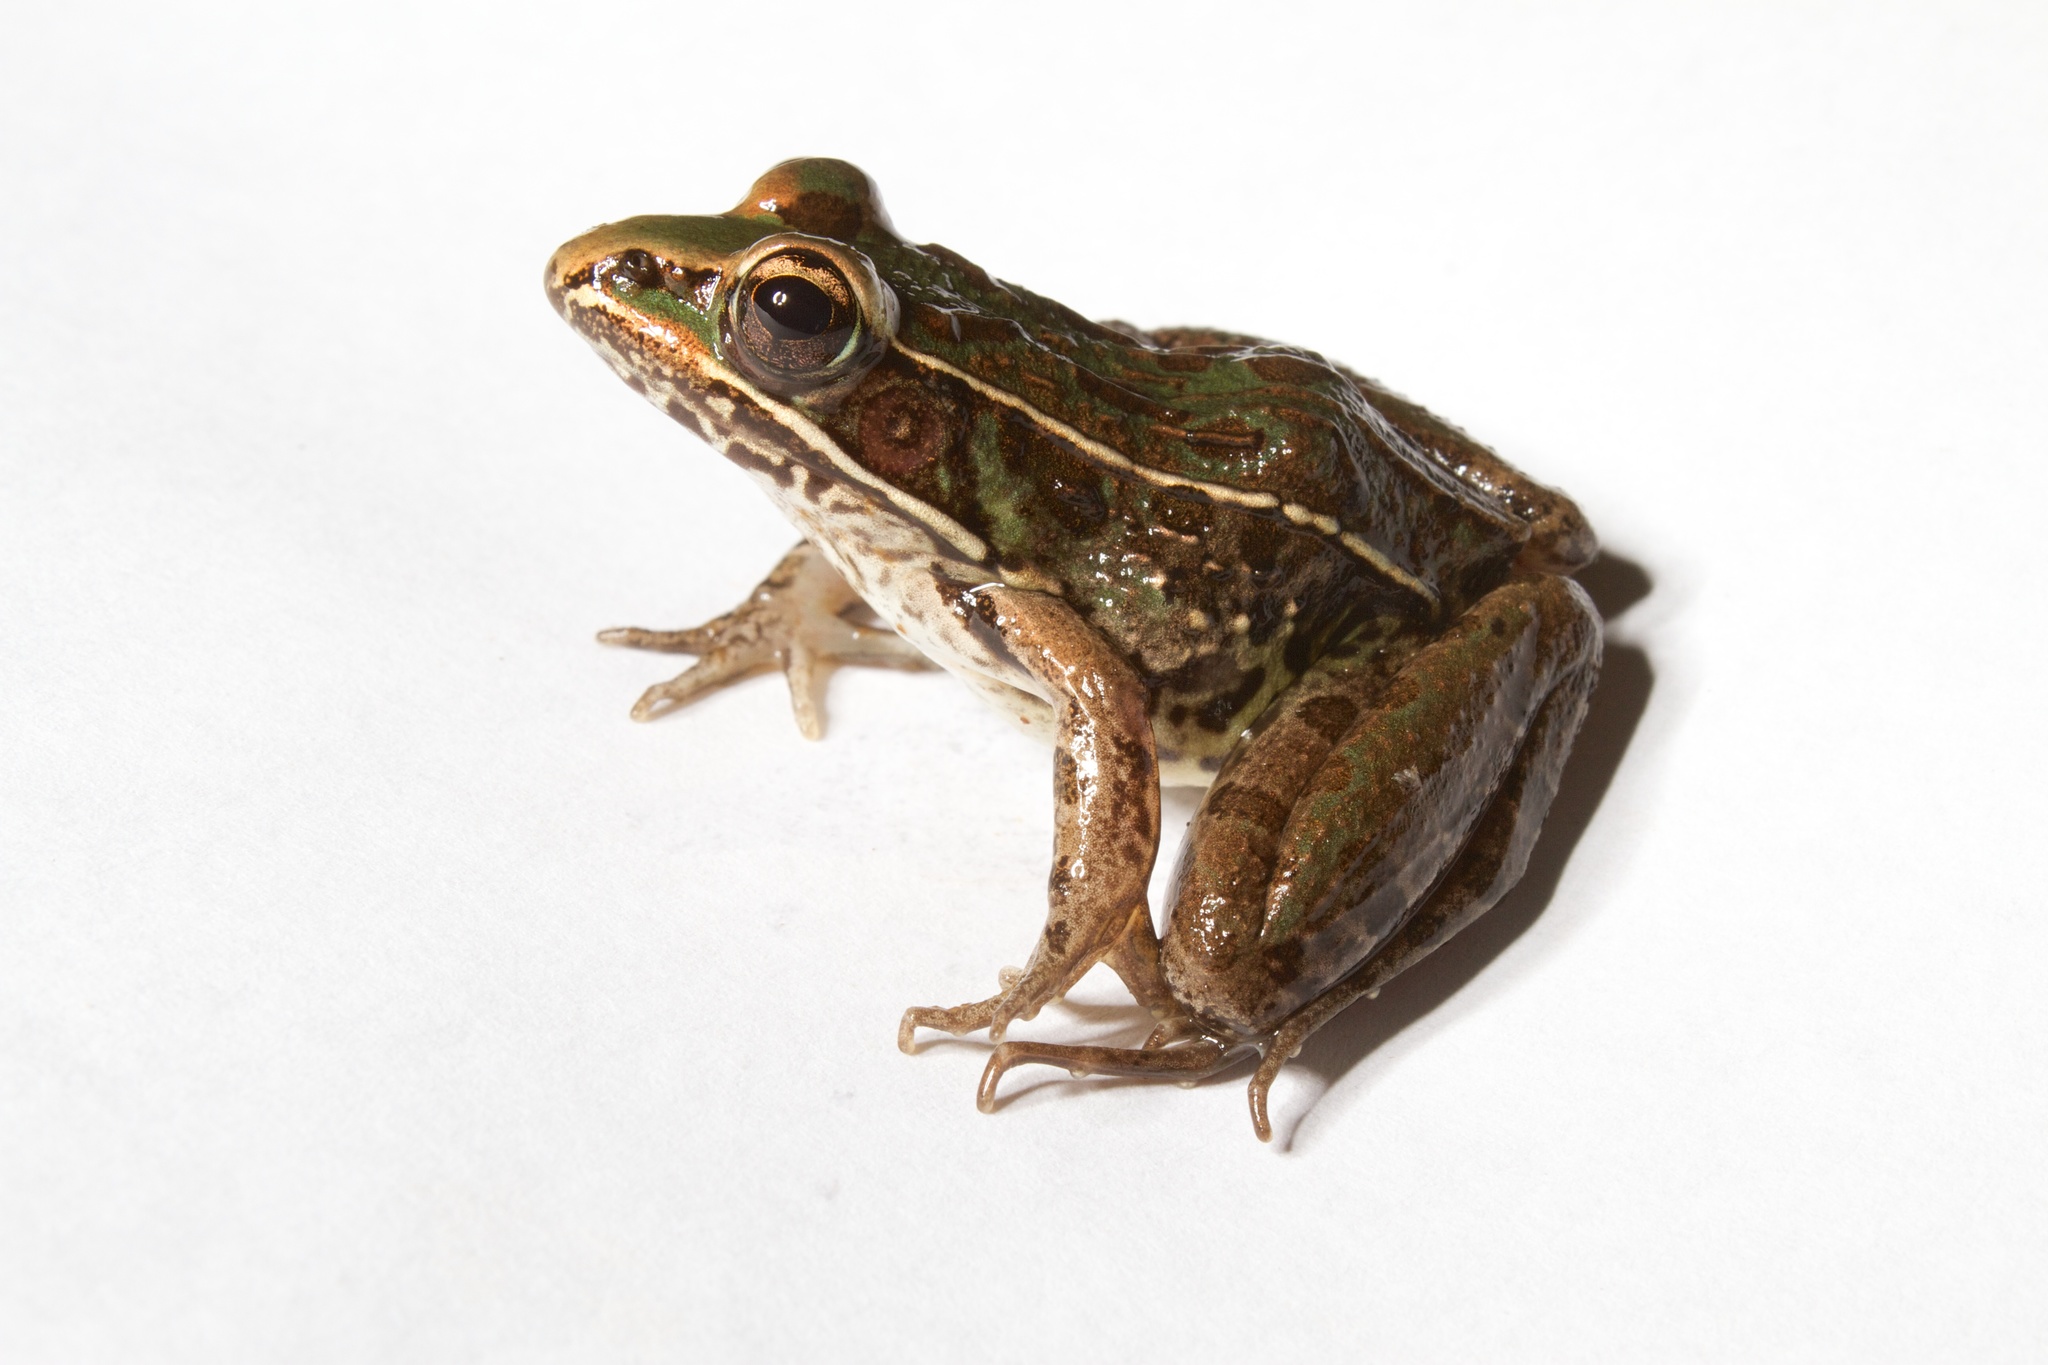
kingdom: Animalia
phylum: Chordata
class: Amphibia
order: Anura
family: Ranidae
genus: Lithobates
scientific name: Lithobates sphenocephalus
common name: Southern leopard frog
